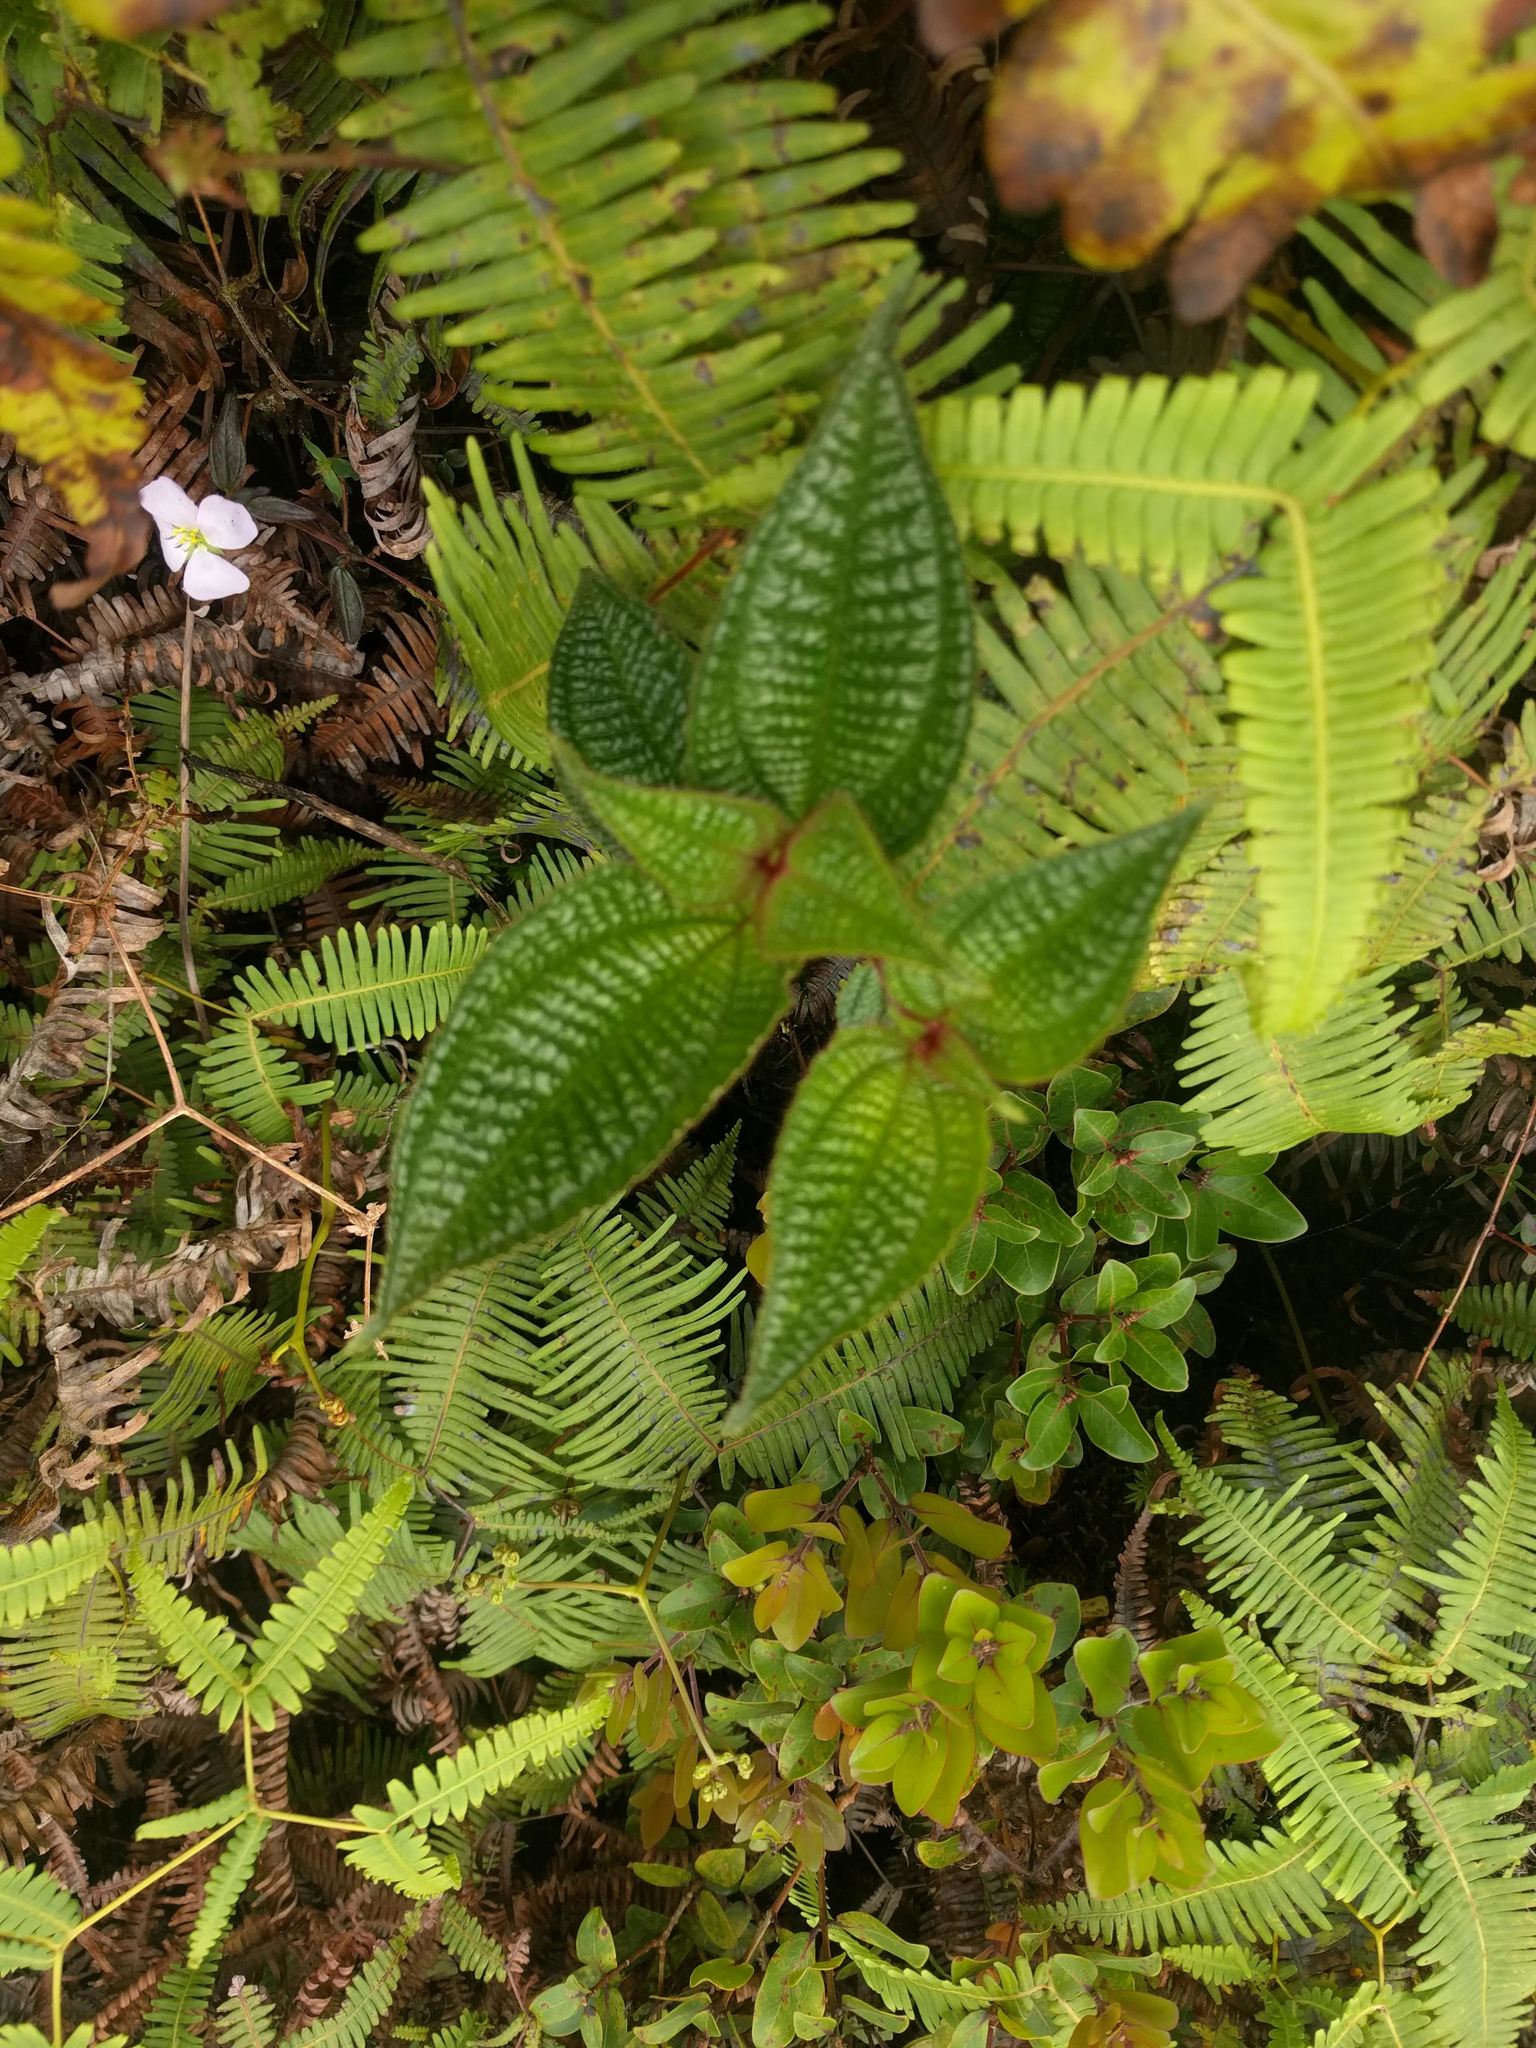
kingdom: Plantae
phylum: Tracheophyta
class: Magnoliopsida
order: Myrtales
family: Melastomataceae
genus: Miconia
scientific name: Miconia crenata
